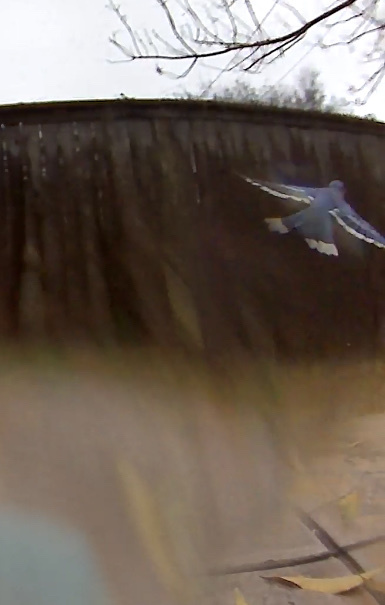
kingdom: Animalia
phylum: Chordata
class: Aves
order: Passeriformes
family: Corvidae
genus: Cyanocitta
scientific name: Cyanocitta cristata
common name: Blue jay
